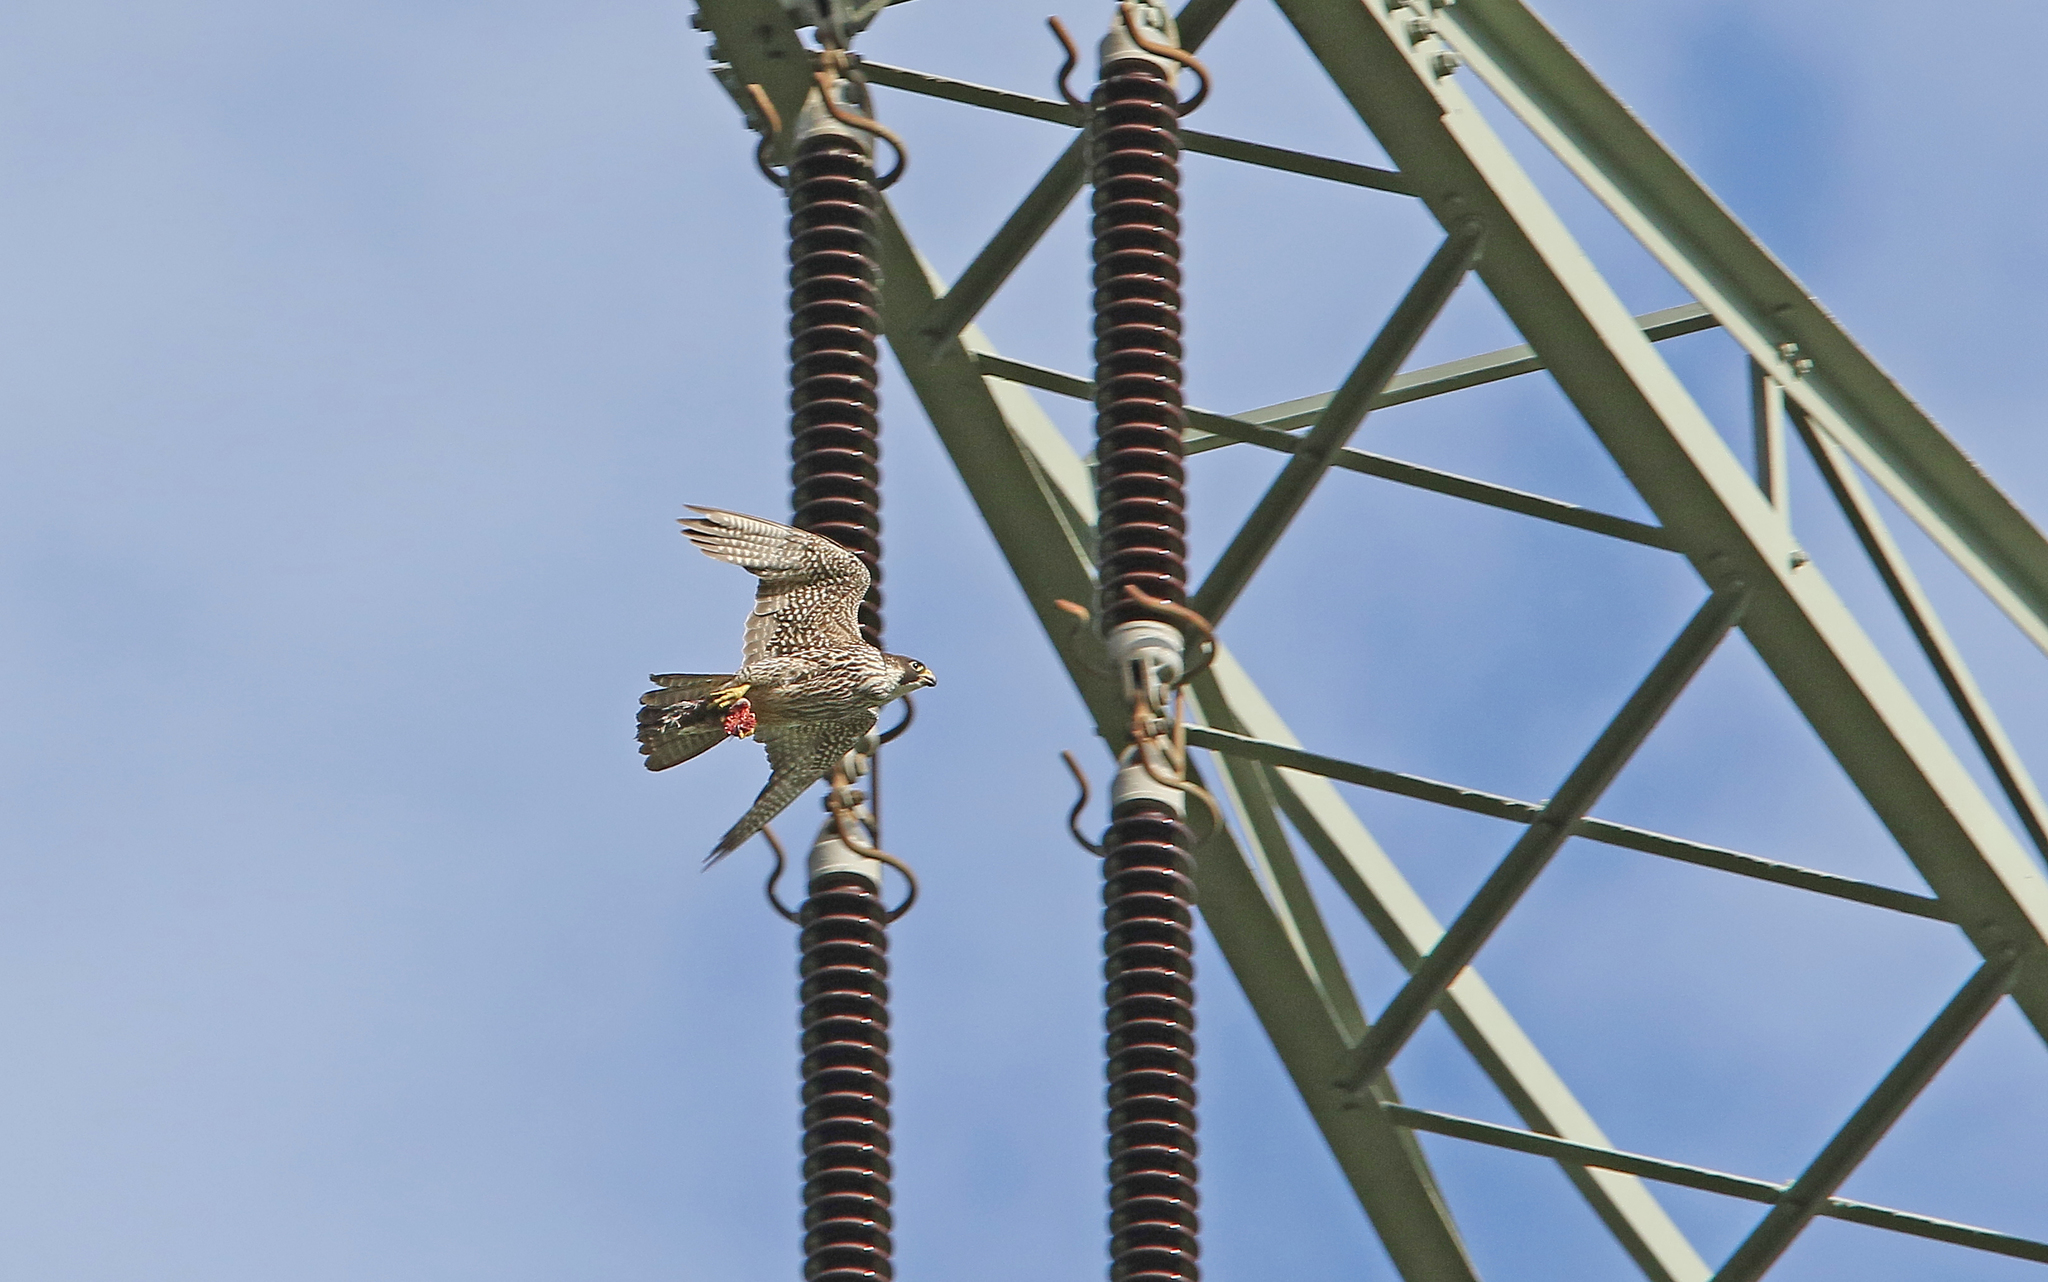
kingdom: Animalia
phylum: Chordata
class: Aves
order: Falconiformes
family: Falconidae
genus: Falco
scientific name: Falco peregrinus
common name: Peregrine falcon
